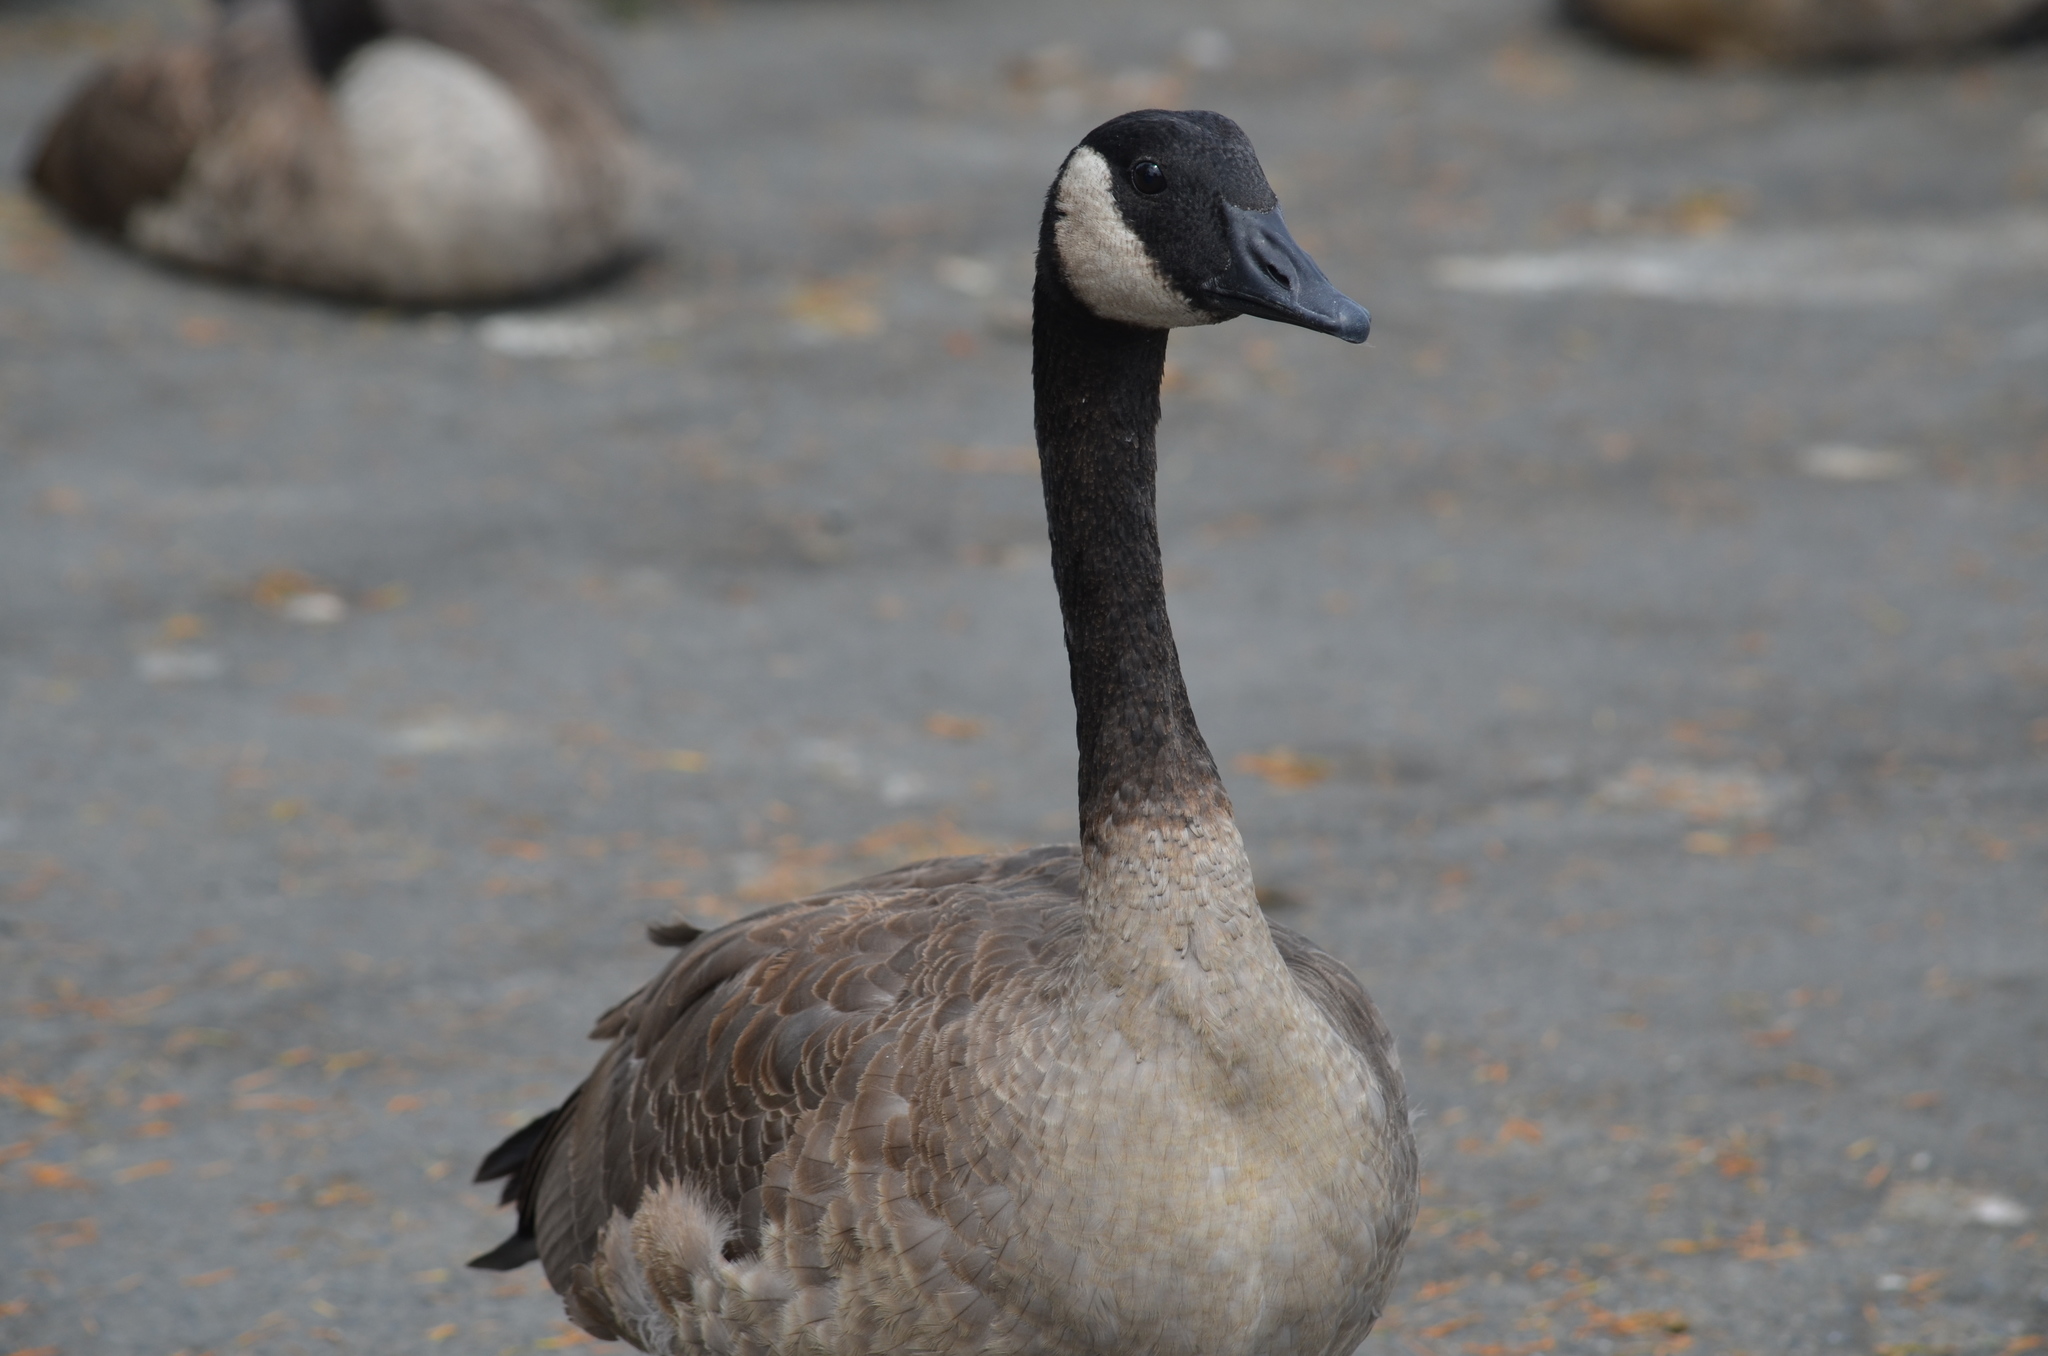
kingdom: Animalia
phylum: Chordata
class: Aves
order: Anseriformes
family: Anatidae
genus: Branta
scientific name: Branta canadensis
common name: Canada goose
